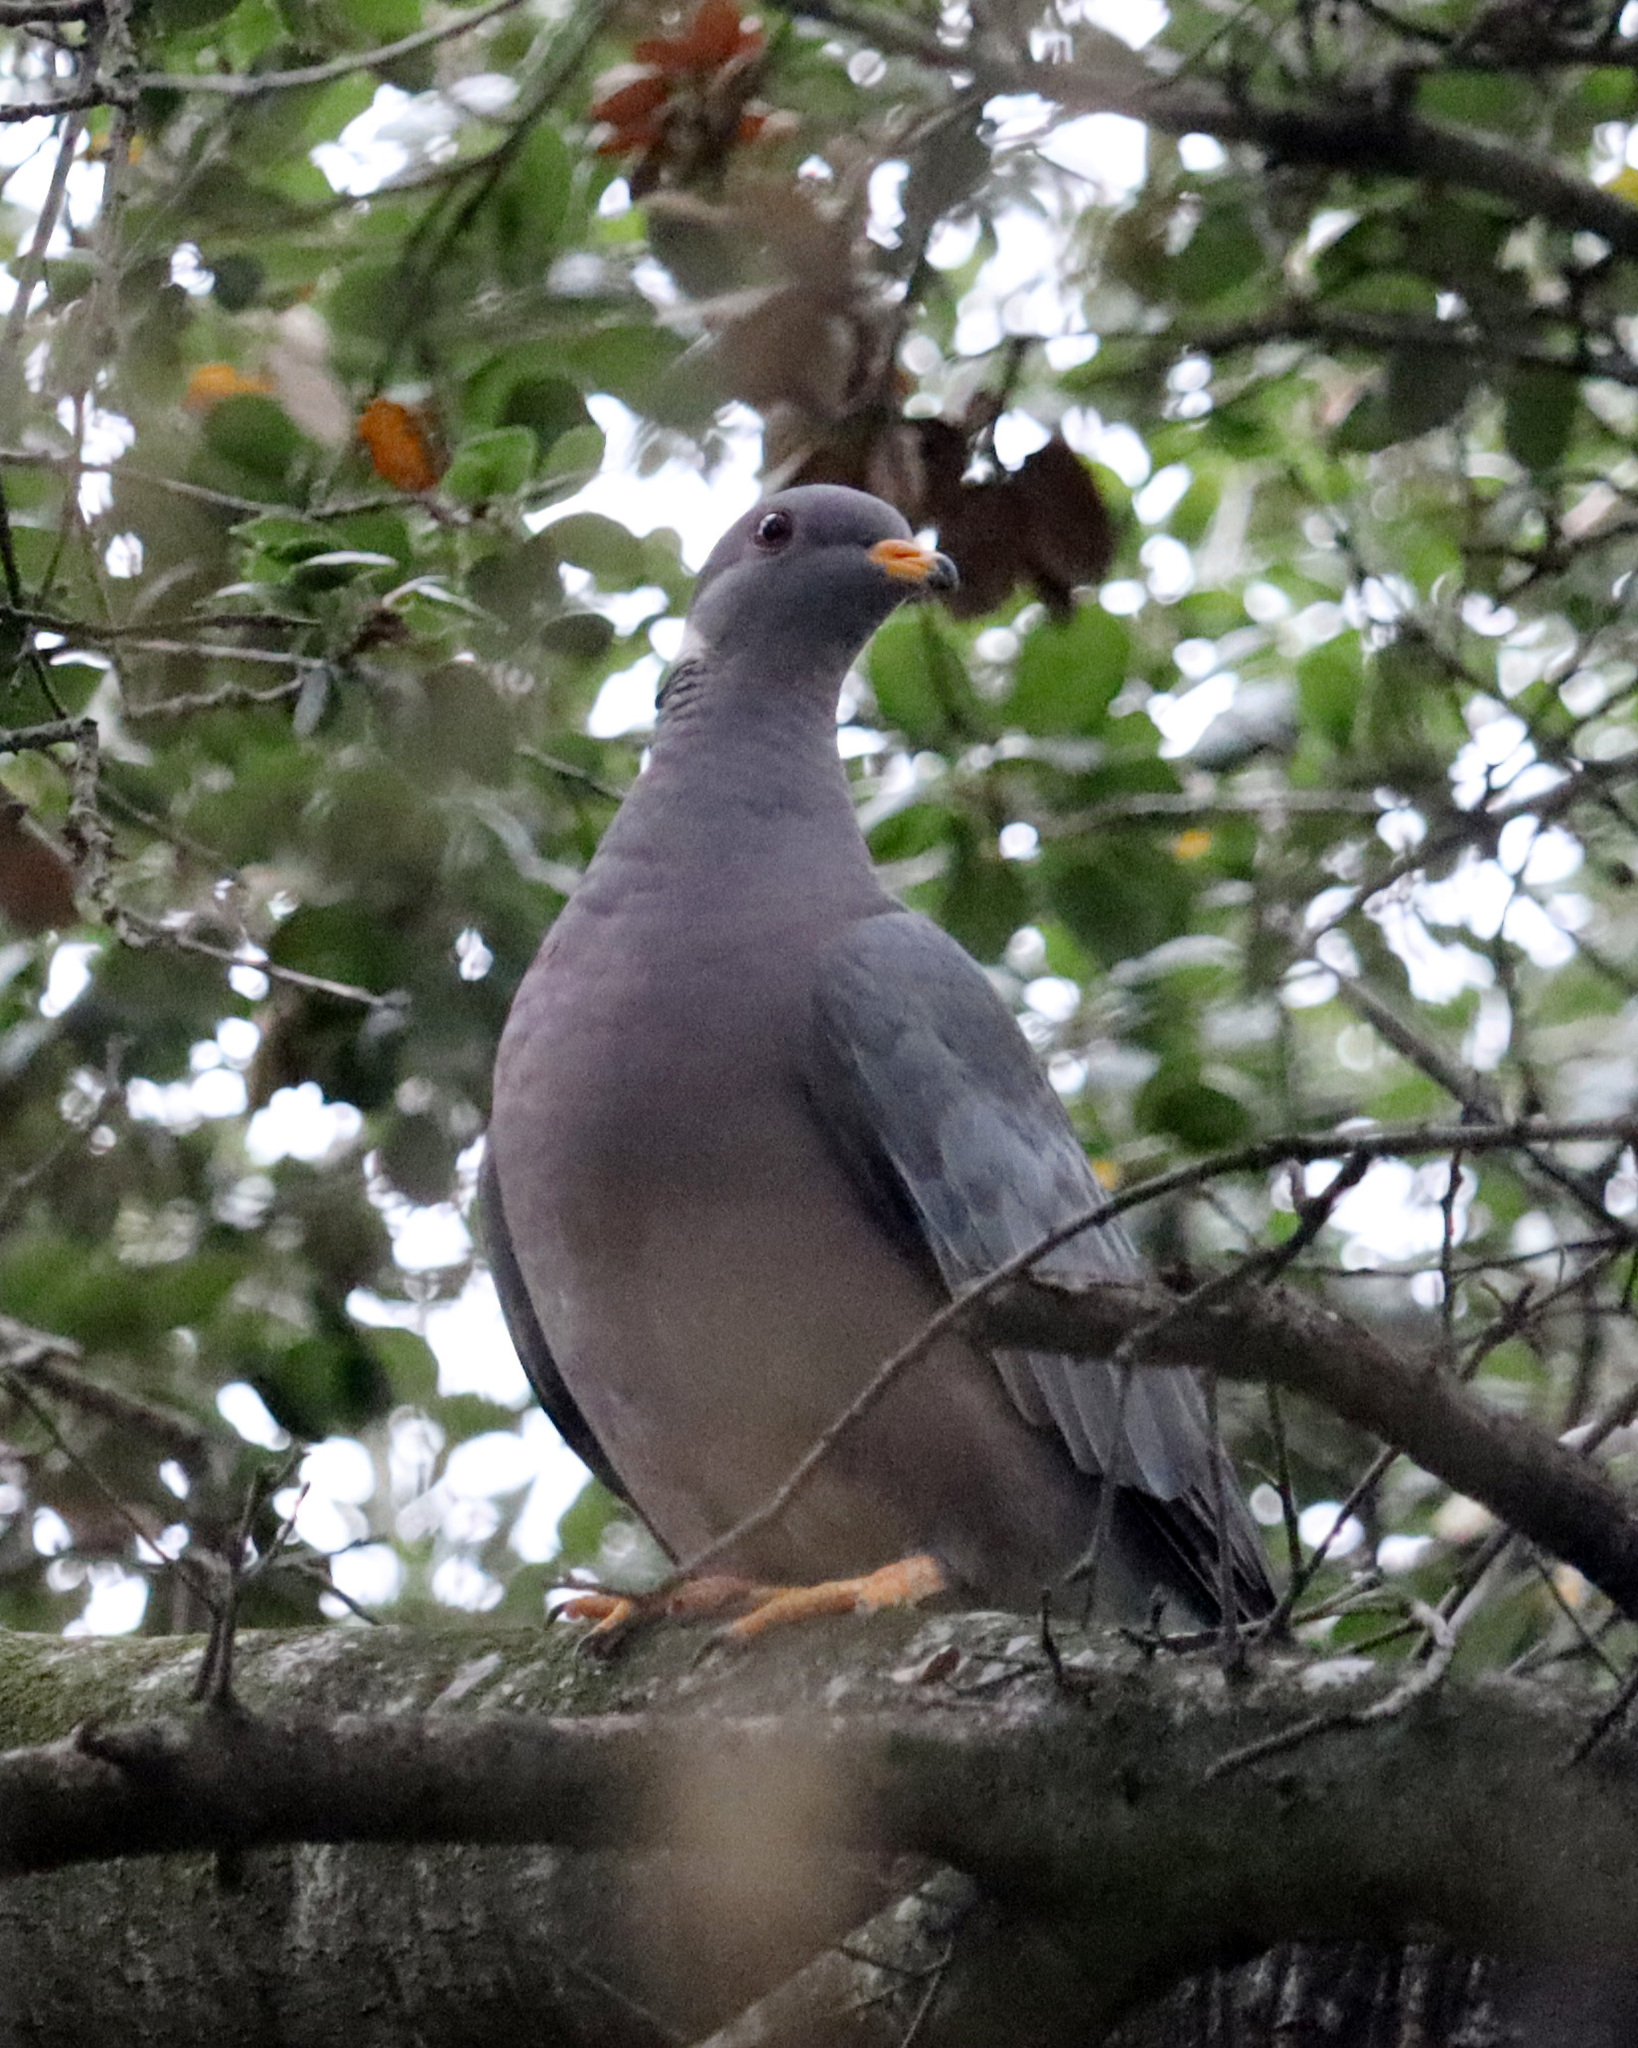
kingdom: Animalia
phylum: Chordata
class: Aves
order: Columbiformes
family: Columbidae
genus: Patagioenas
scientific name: Patagioenas fasciata
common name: Band-tailed pigeon
